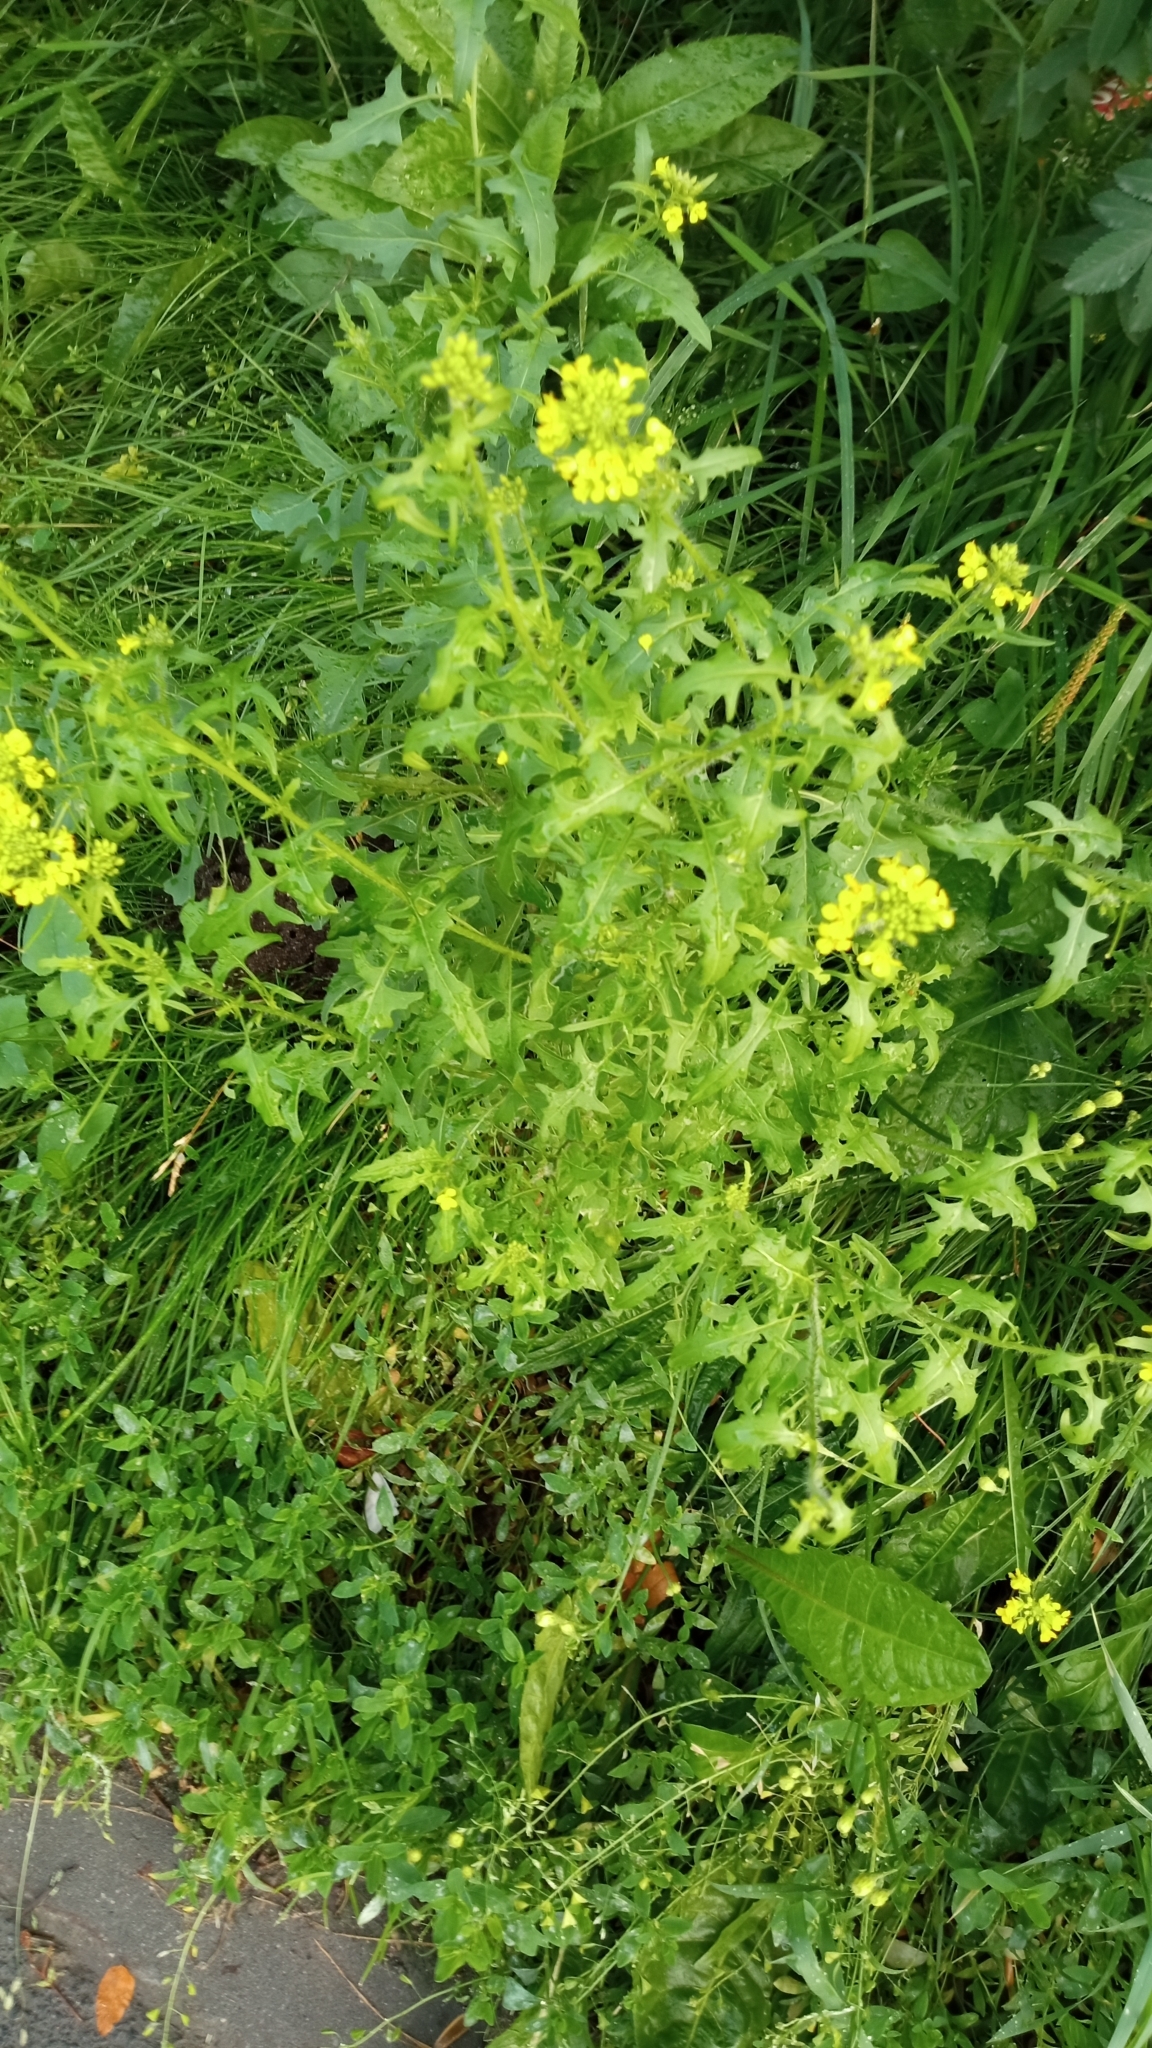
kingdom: Plantae
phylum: Tracheophyta
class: Magnoliopsida
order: Brassicales
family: Brassicaceae
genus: Sisymbrium
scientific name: Sisymbrium loeselii
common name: False london-rocket
